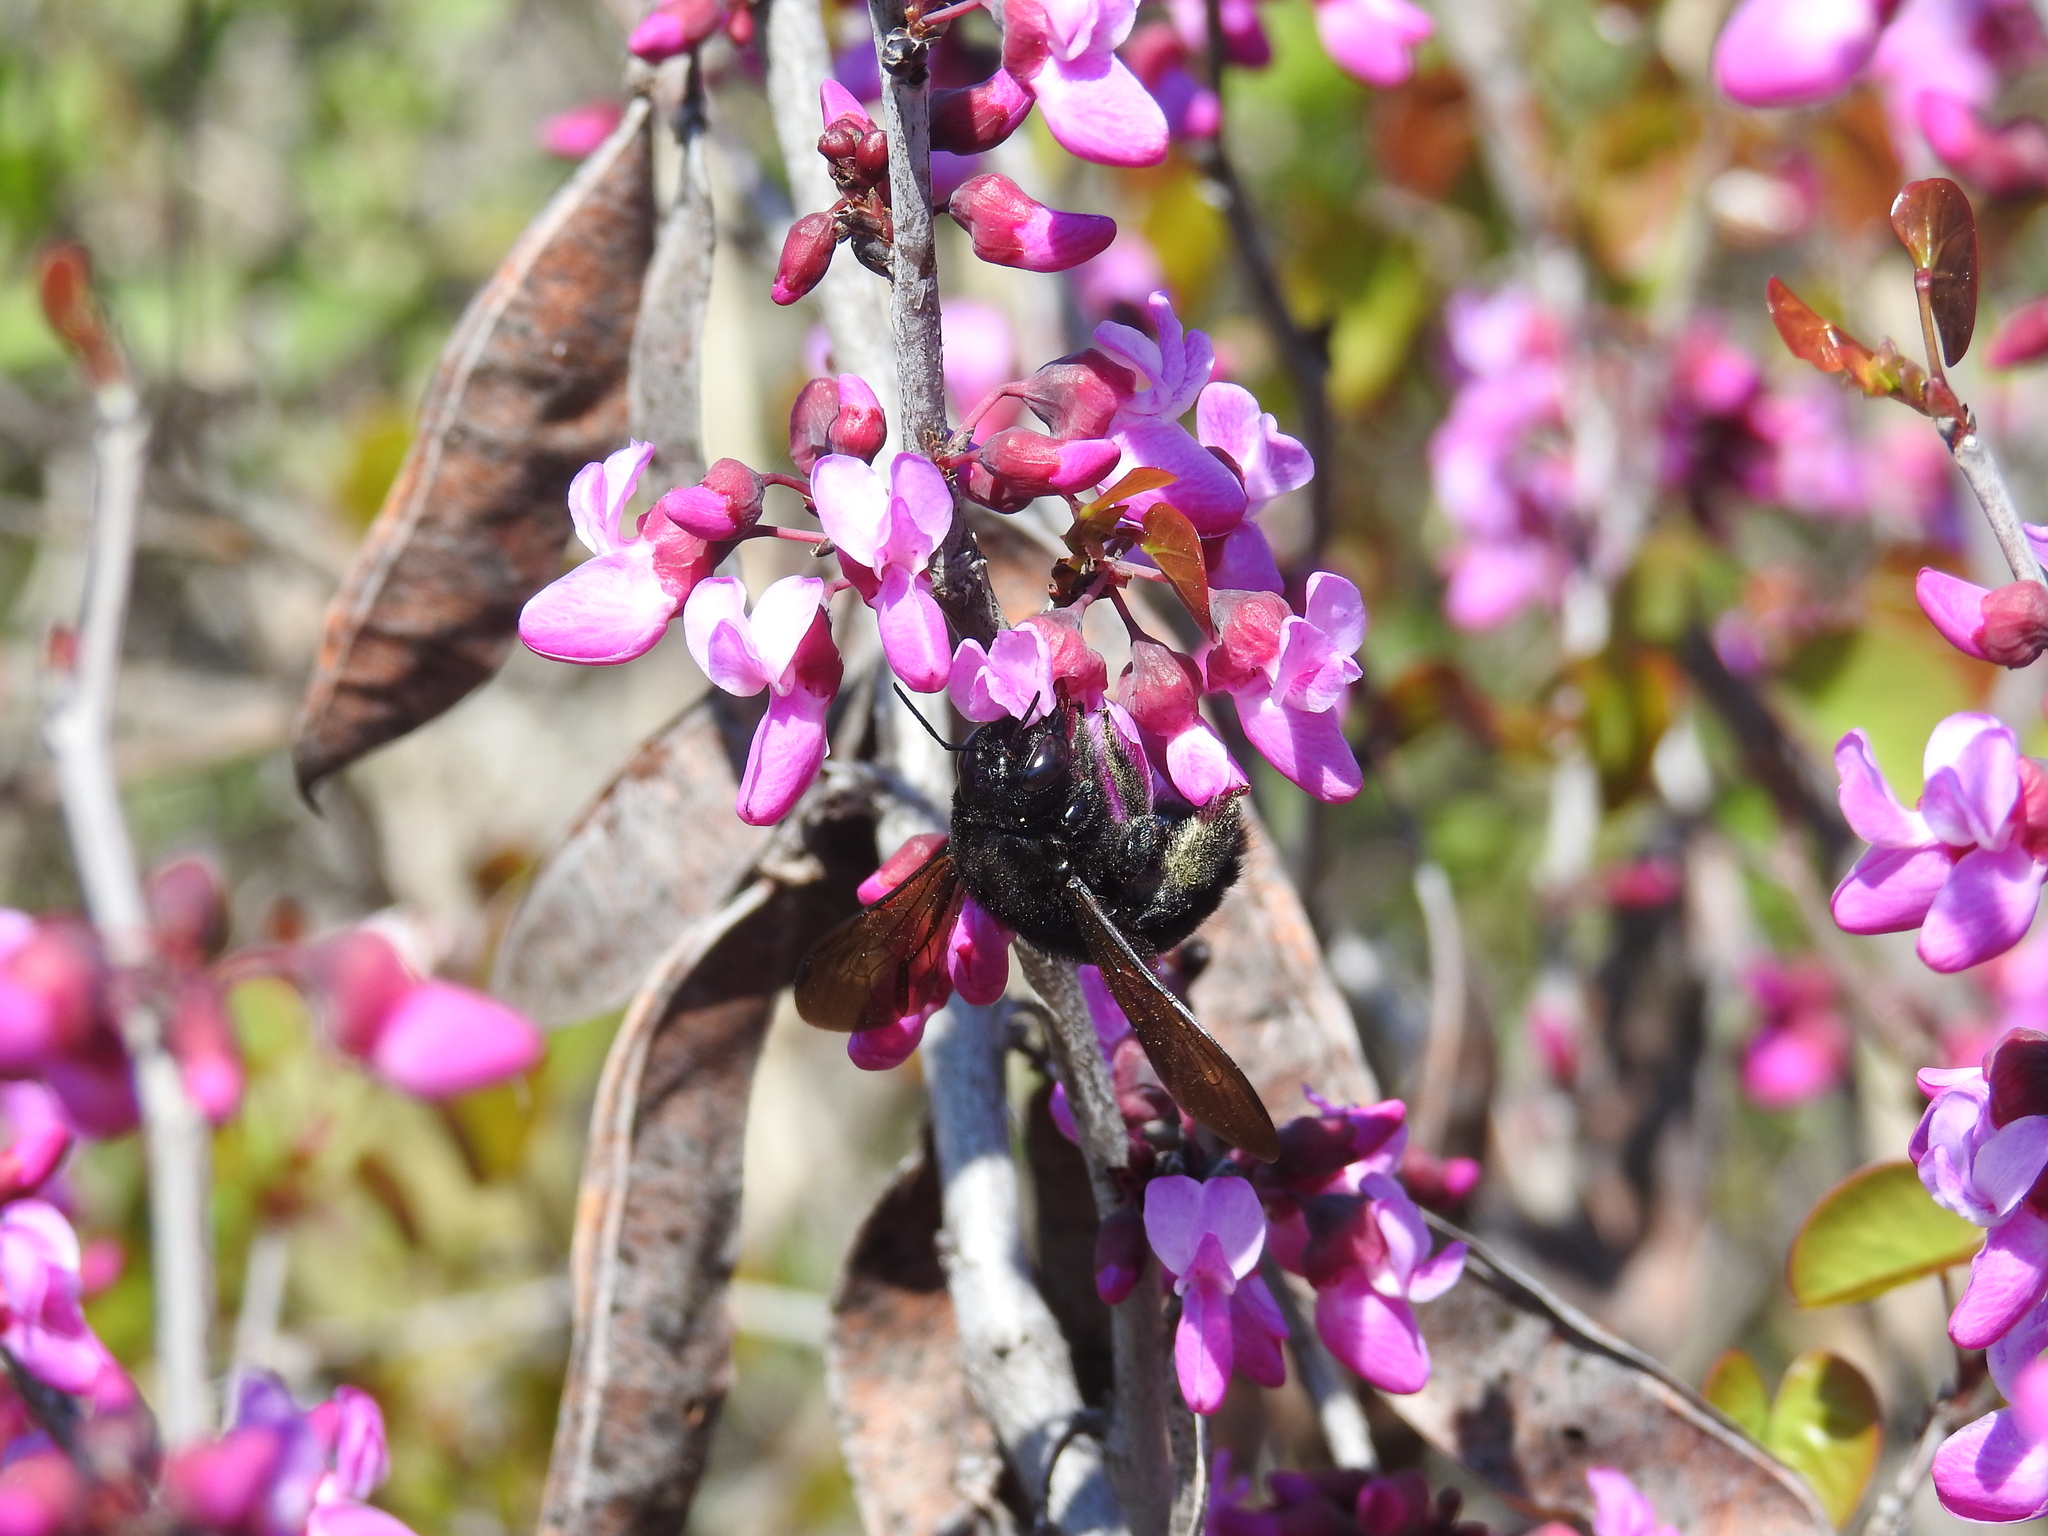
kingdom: Animalia
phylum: Arthropoda
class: Insecta
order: Hymenoptera
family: Apidae
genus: Xylocopa
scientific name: Xylocopa sonorina
